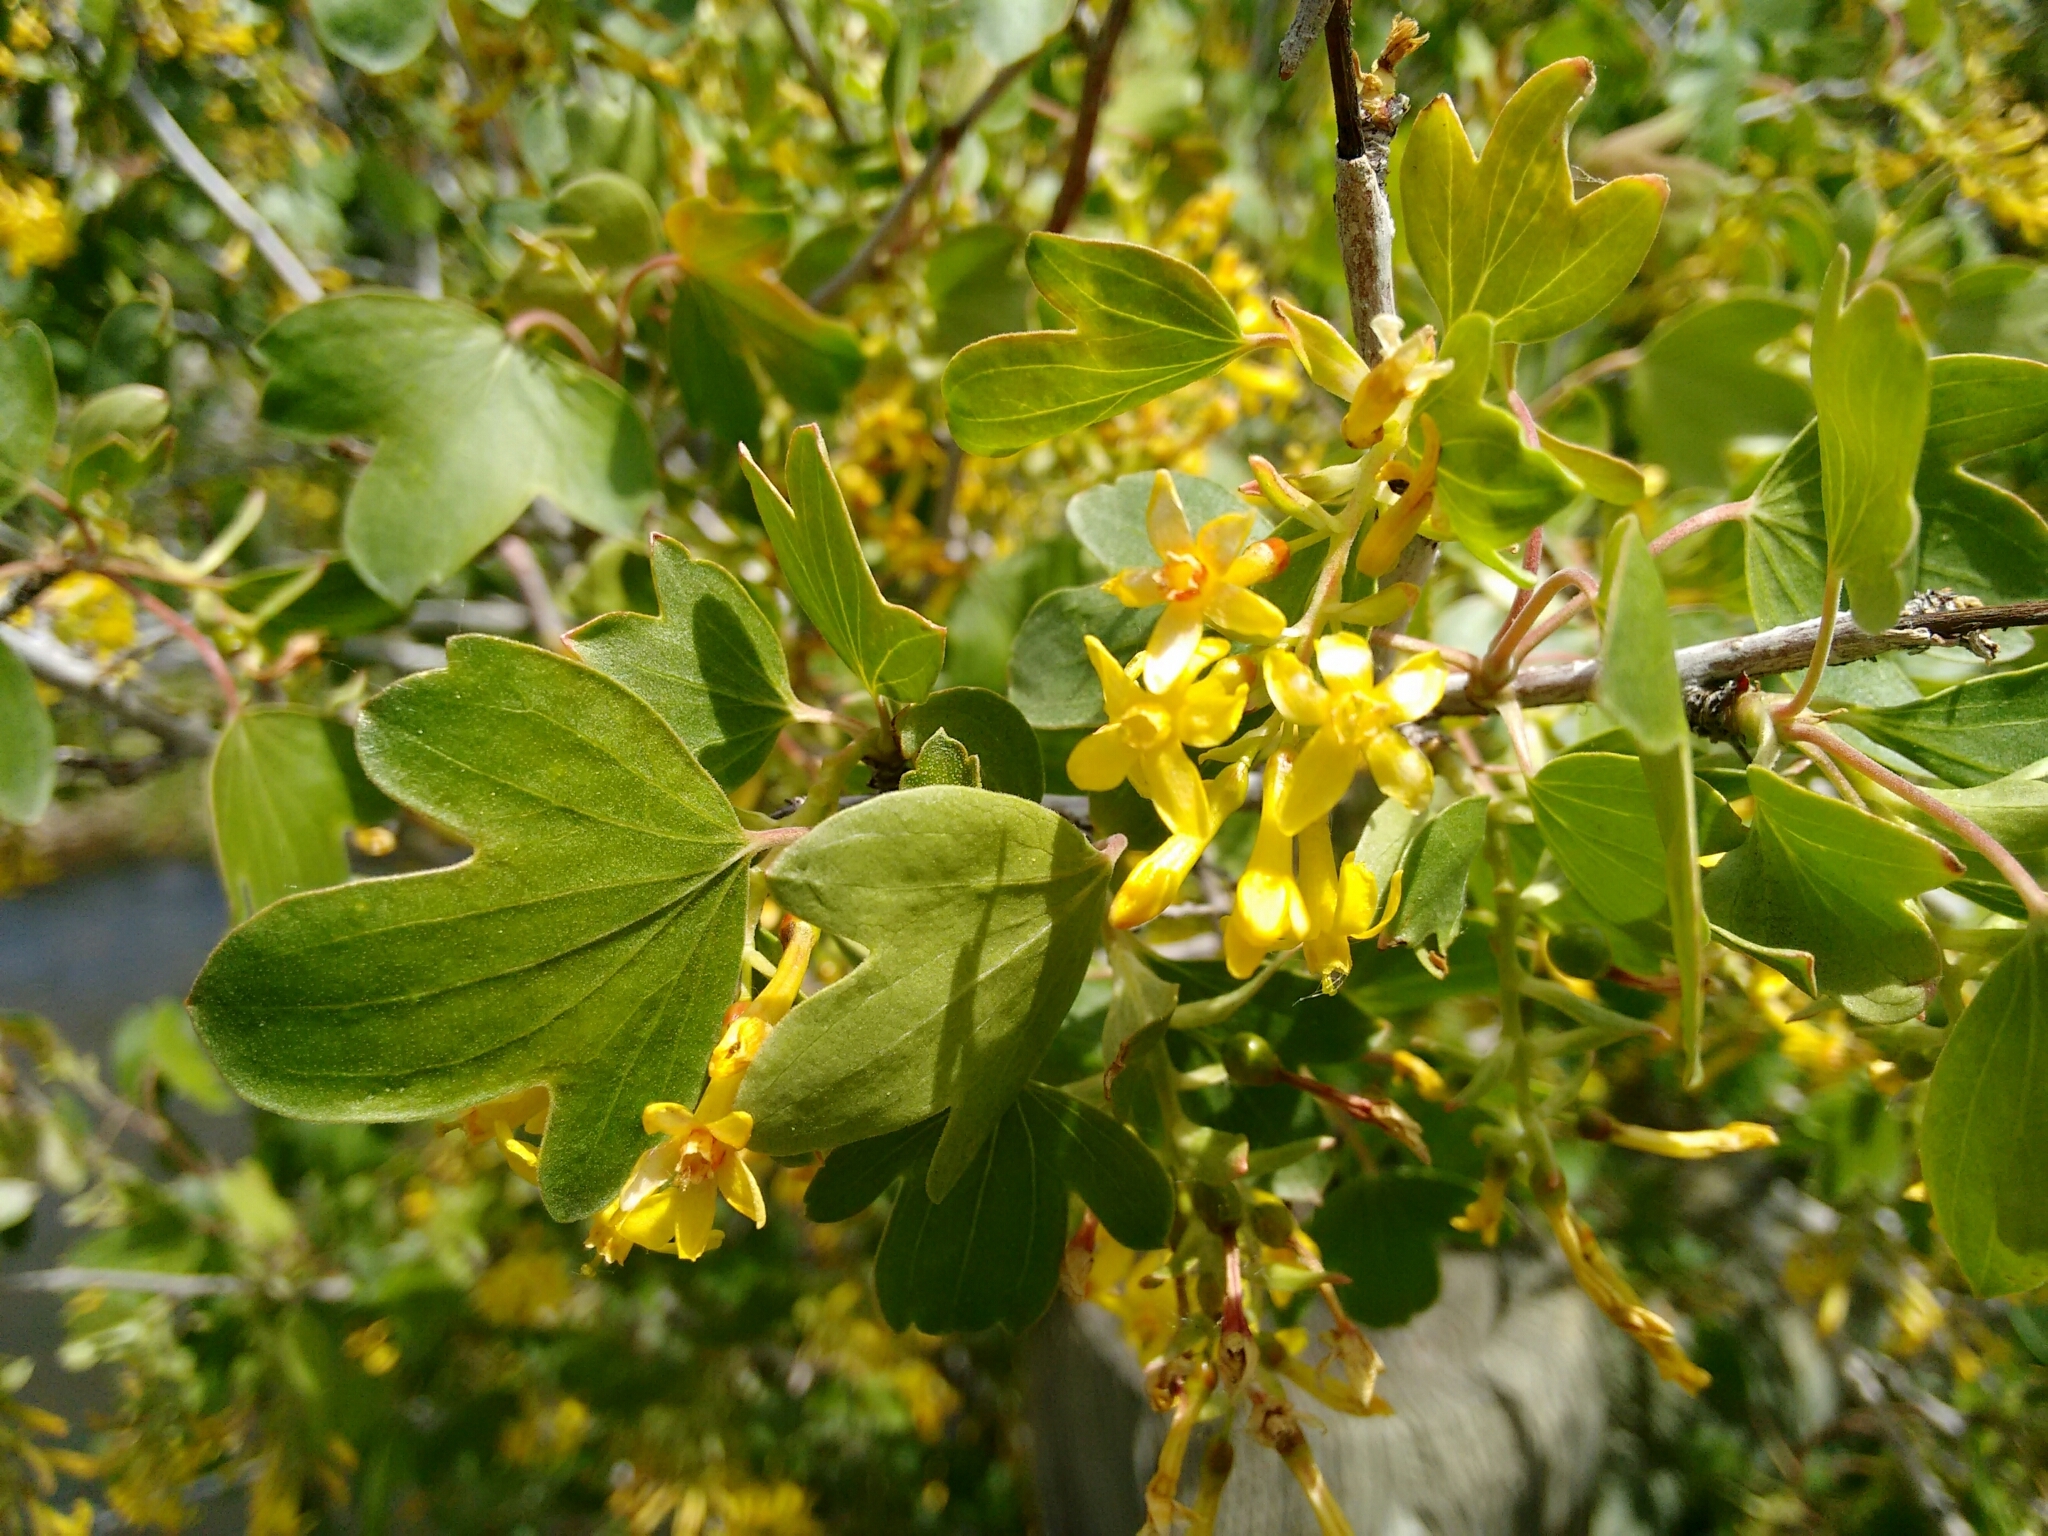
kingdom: Plantae
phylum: Tracheophyta
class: Magnoliopsida
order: Saxifragales
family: Grossulariaceae
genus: Ribes
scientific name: Ribes aureum
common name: Golden currant
